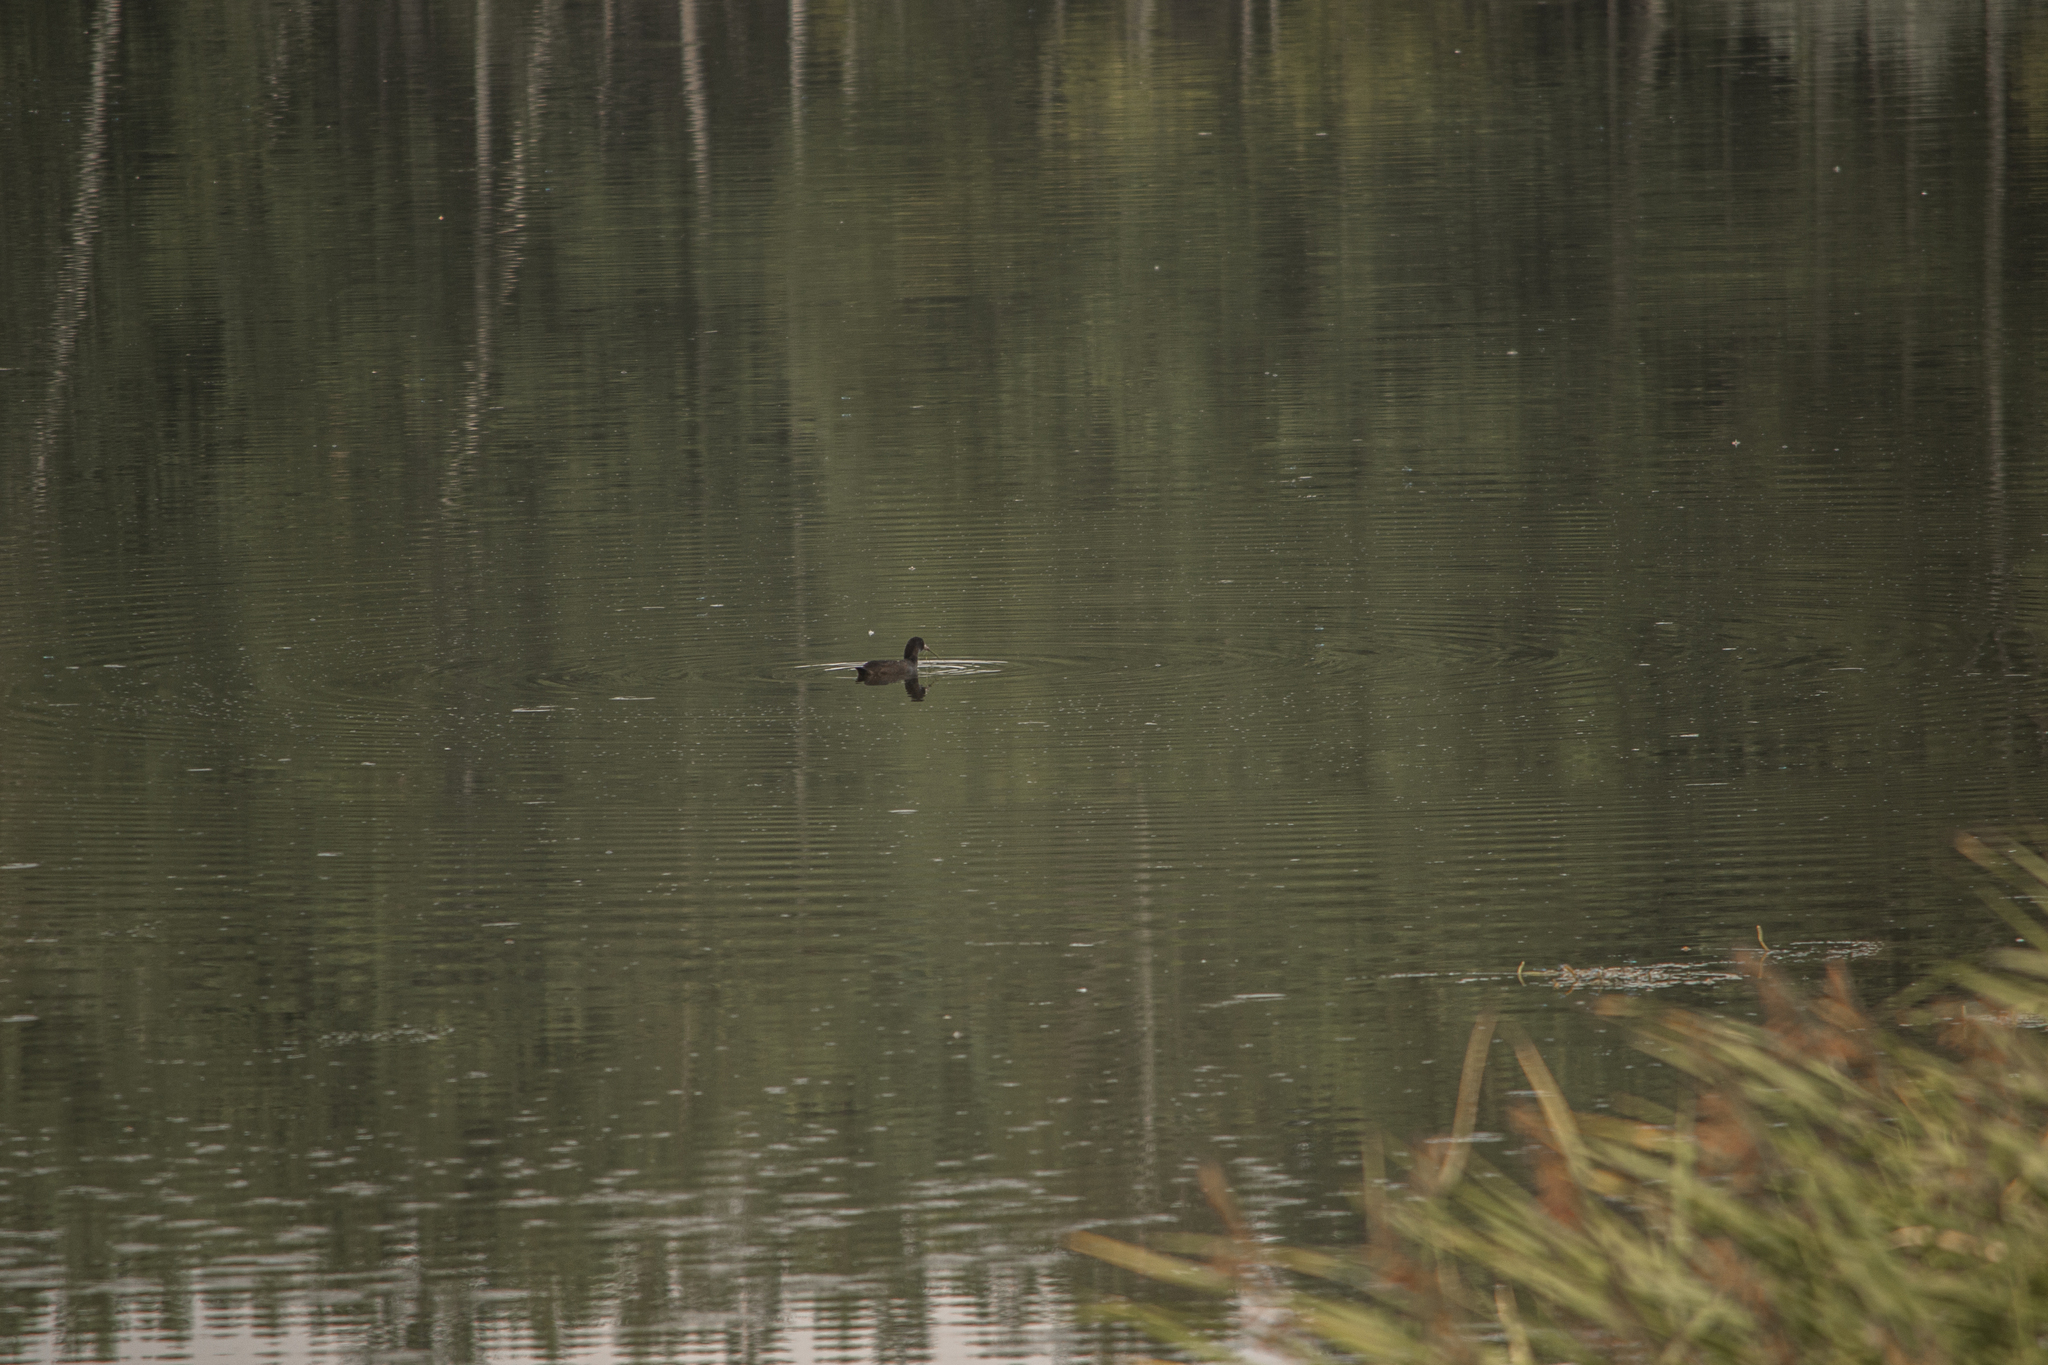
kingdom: Animalia
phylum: Chordata
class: Aves
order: Gruiformes
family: Rallidae
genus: Fulica
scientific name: Fulica atra
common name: Eurasian coot
